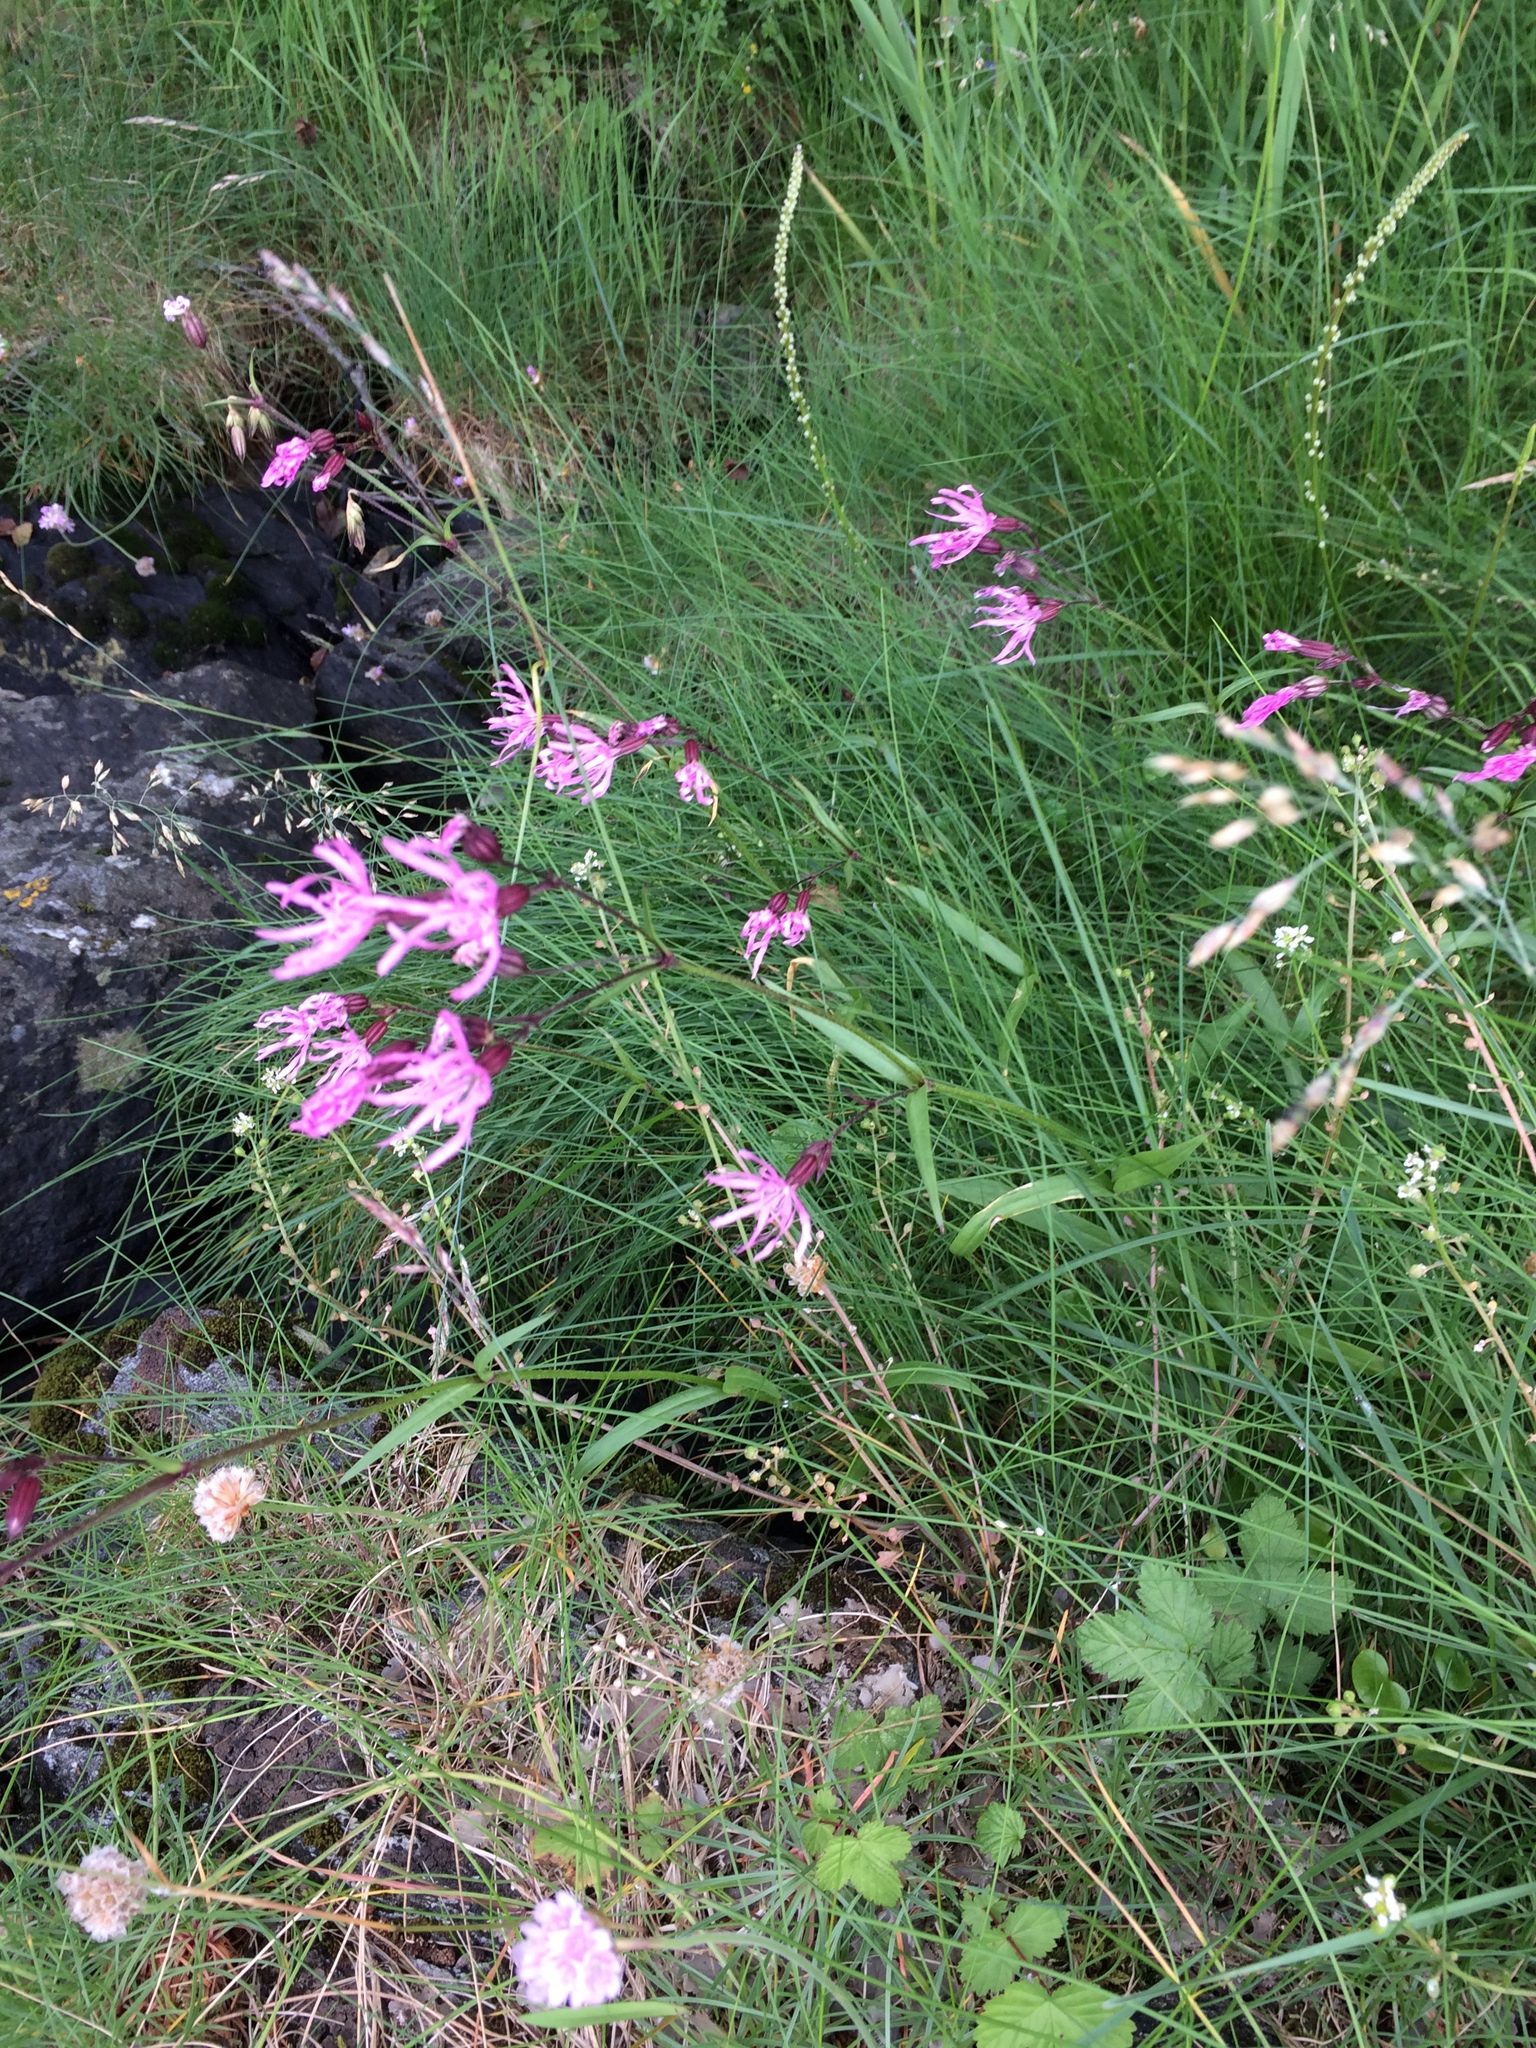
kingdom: Plantae
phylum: Tracheophyta
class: Magnoliopsida
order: Caryophyllales
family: Caryophyllaceae
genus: Silene
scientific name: Silene flos-cuculi
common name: Ragged-robin
